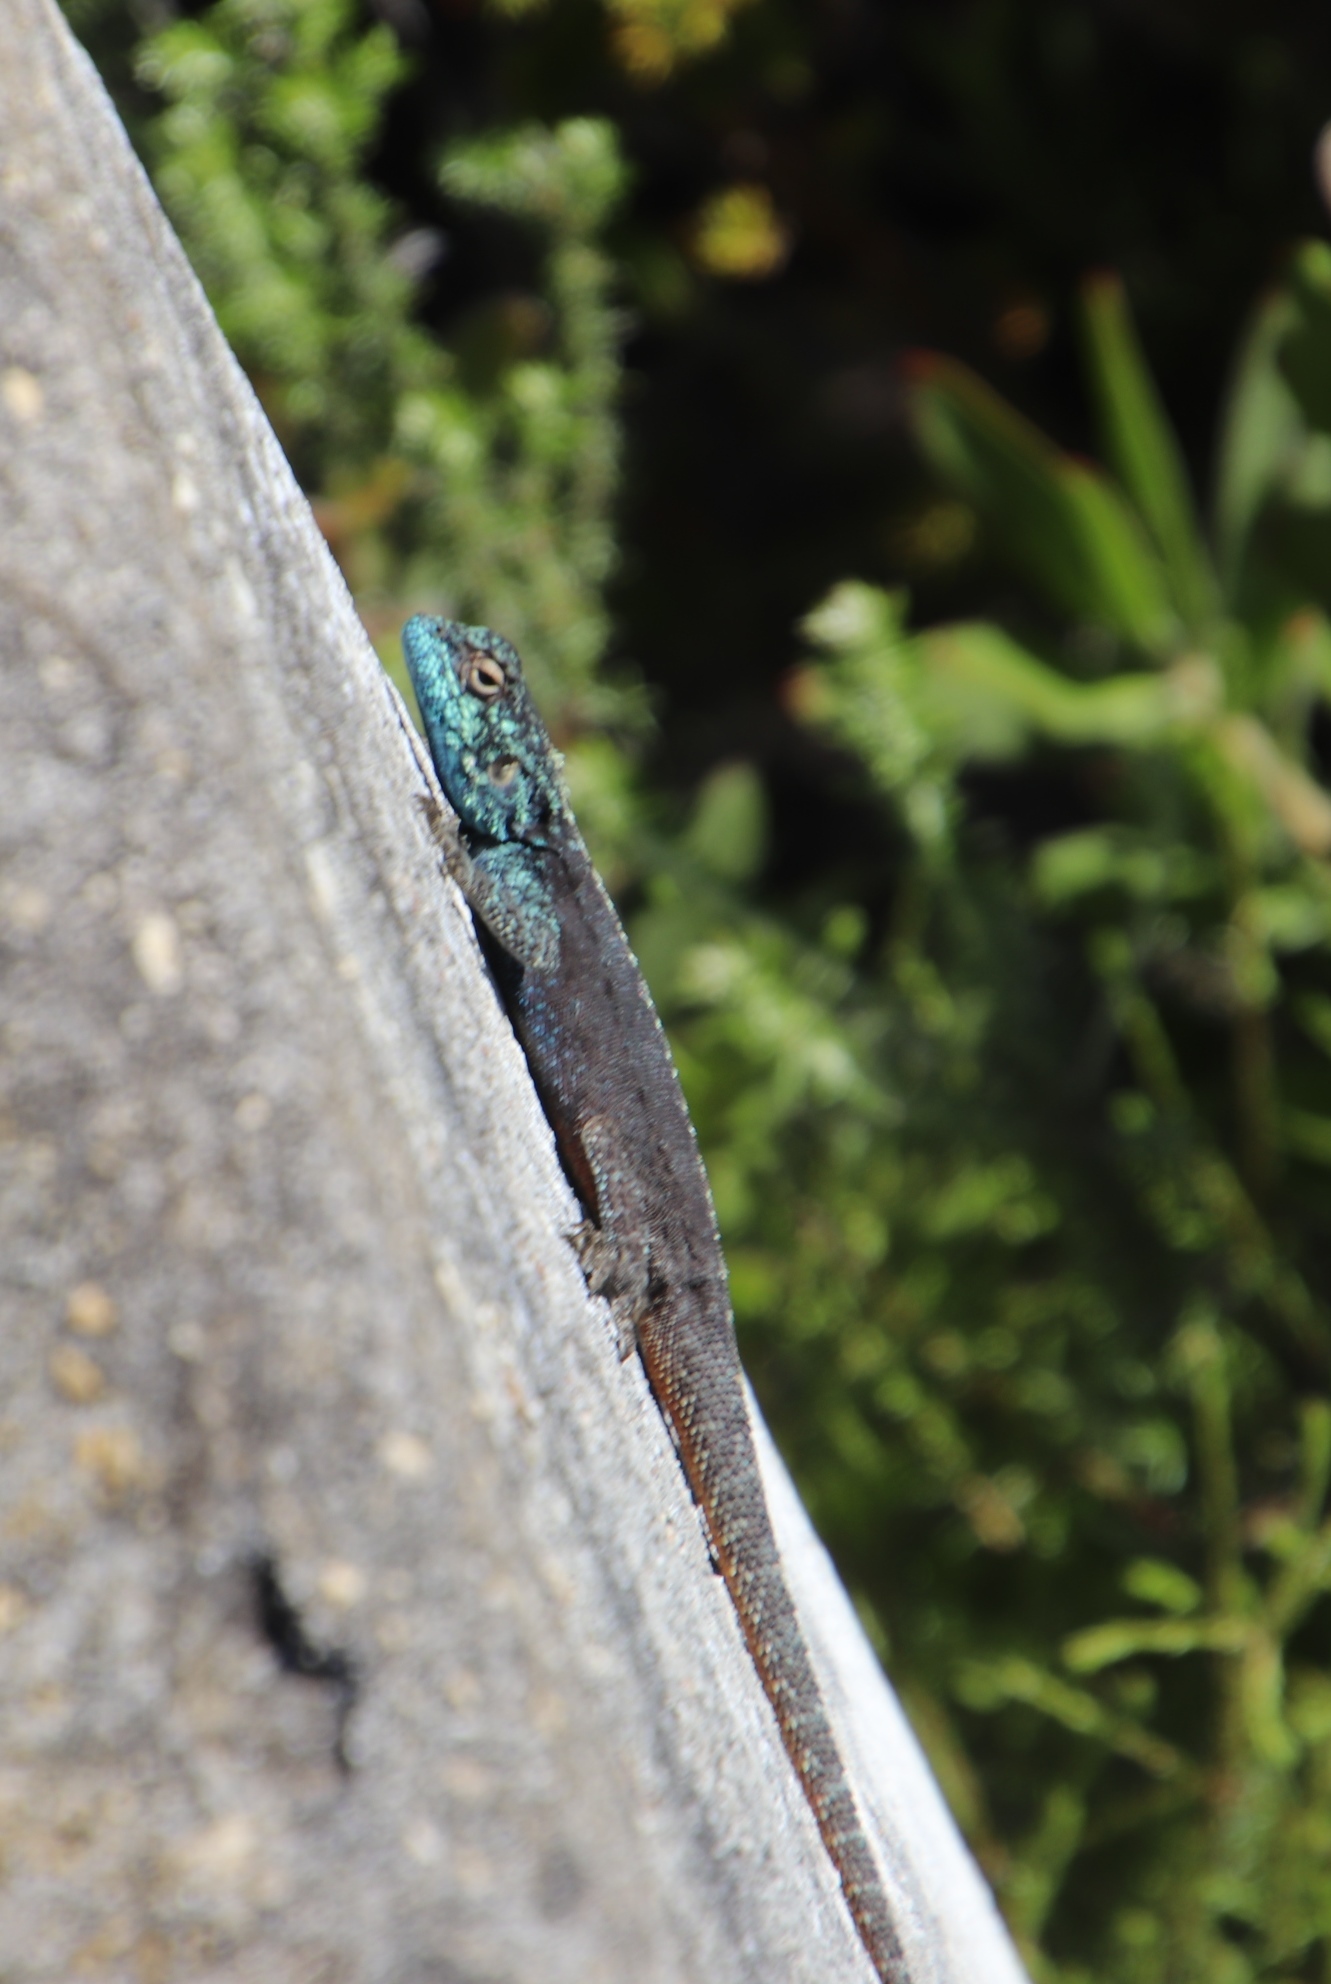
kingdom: Animalia
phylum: Chordata
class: Squamata
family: Agamidae
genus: Agama
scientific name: Agama atra
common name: Southern african rock agama
